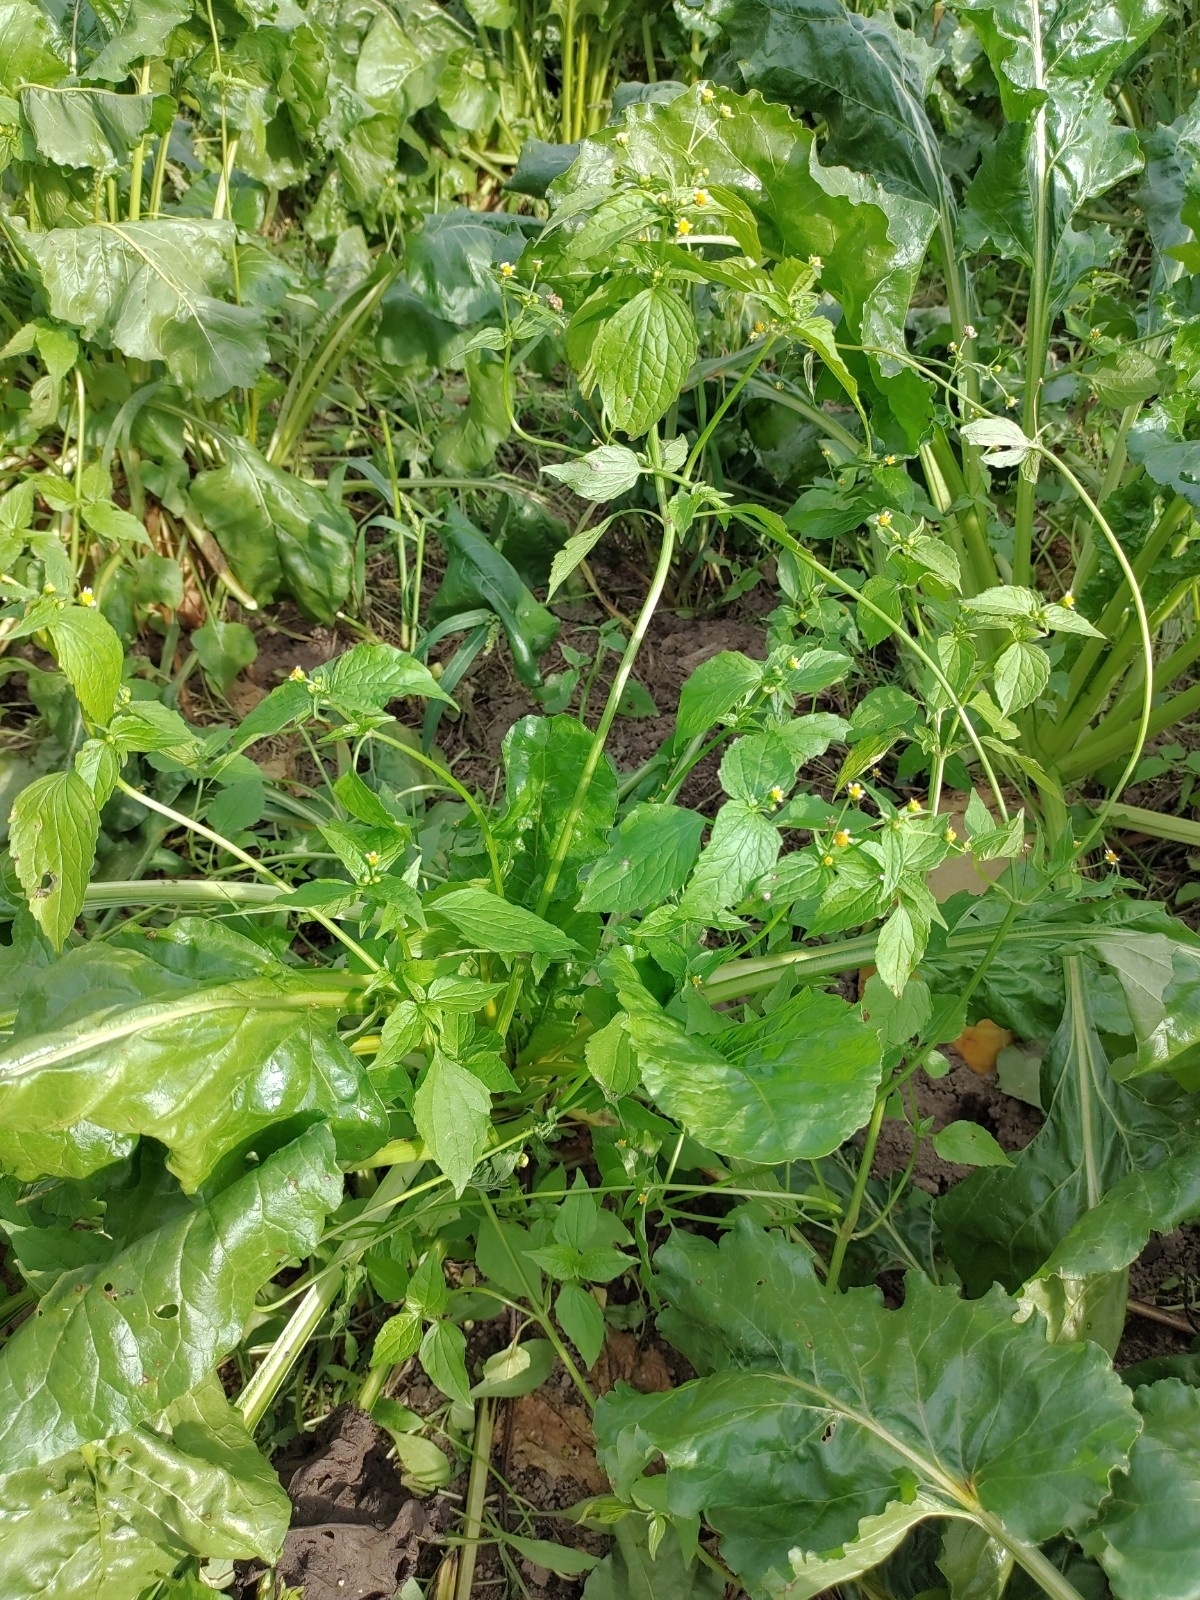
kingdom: Plantae
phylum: Tracheophyta
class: Magnoliopsida
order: Asterales
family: Asteraceae
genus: Galinsoga
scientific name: Galinsoga parviflora
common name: Gallant soldier
